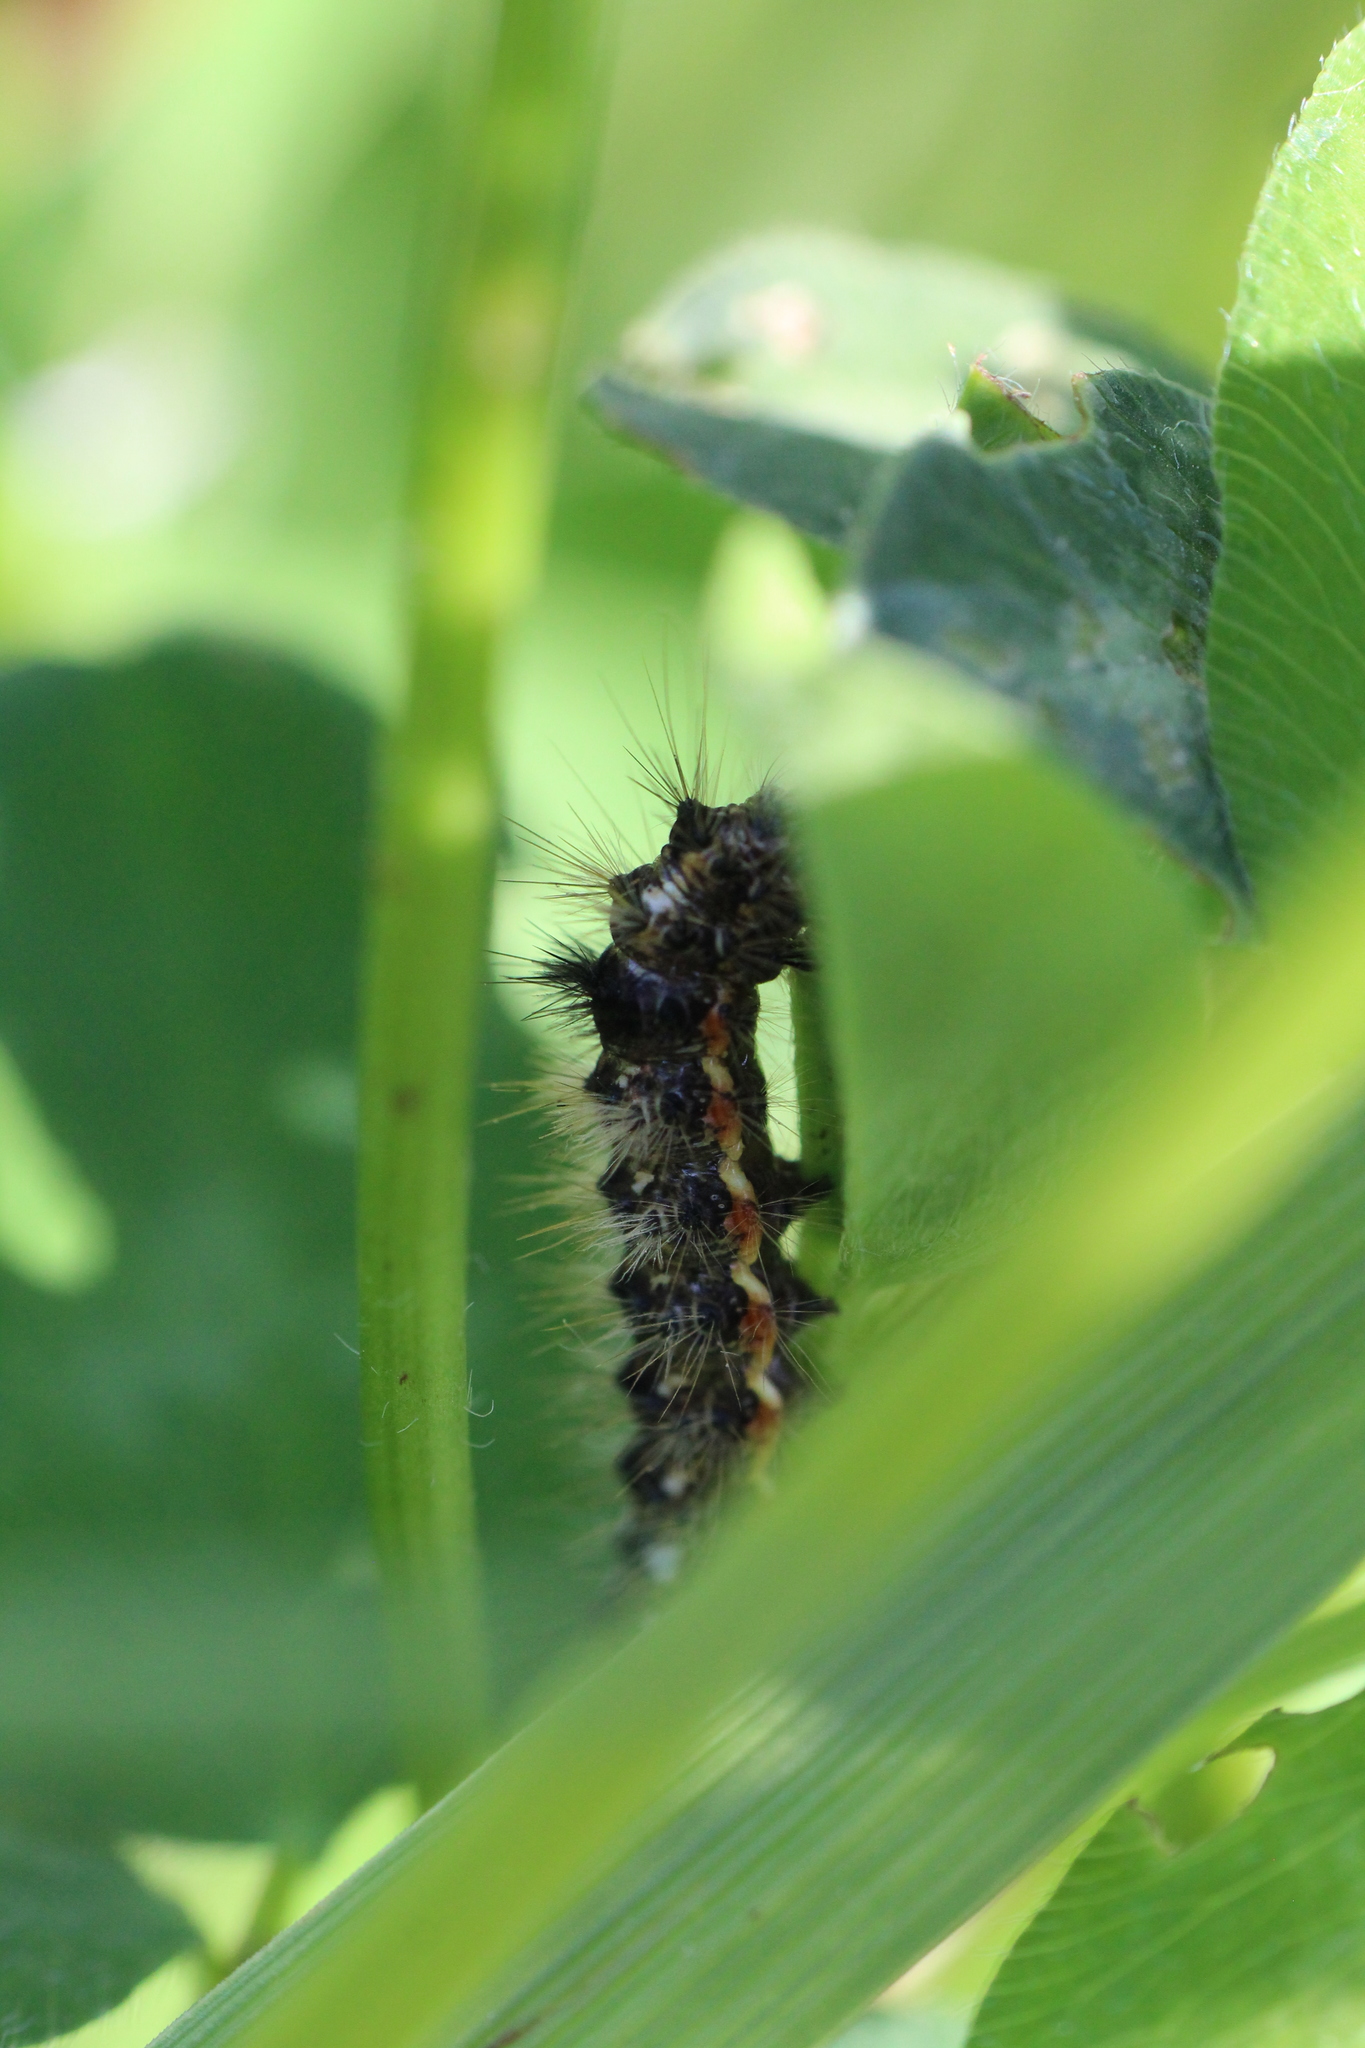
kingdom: Animalia
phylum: Arthropoda
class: Insecta
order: Lepidoptera
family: Noctuidae
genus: Acronicta
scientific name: Acronicta rumicis
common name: Knot grass
